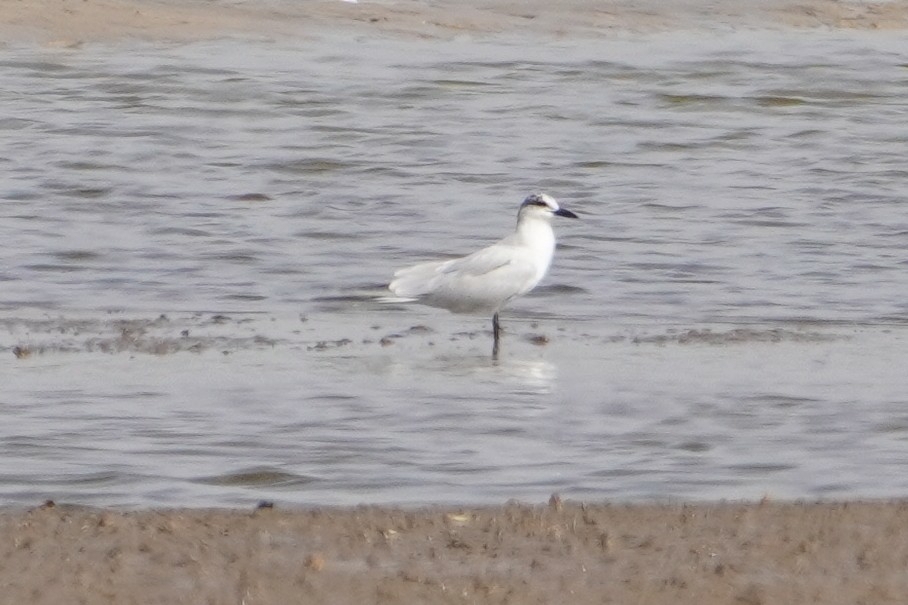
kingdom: Animalia
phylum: Chordata
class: Aves
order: Charadriiformes
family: Laridae
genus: Gelochelidon
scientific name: Gelochelidon nilotica
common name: Gull-billed tern
